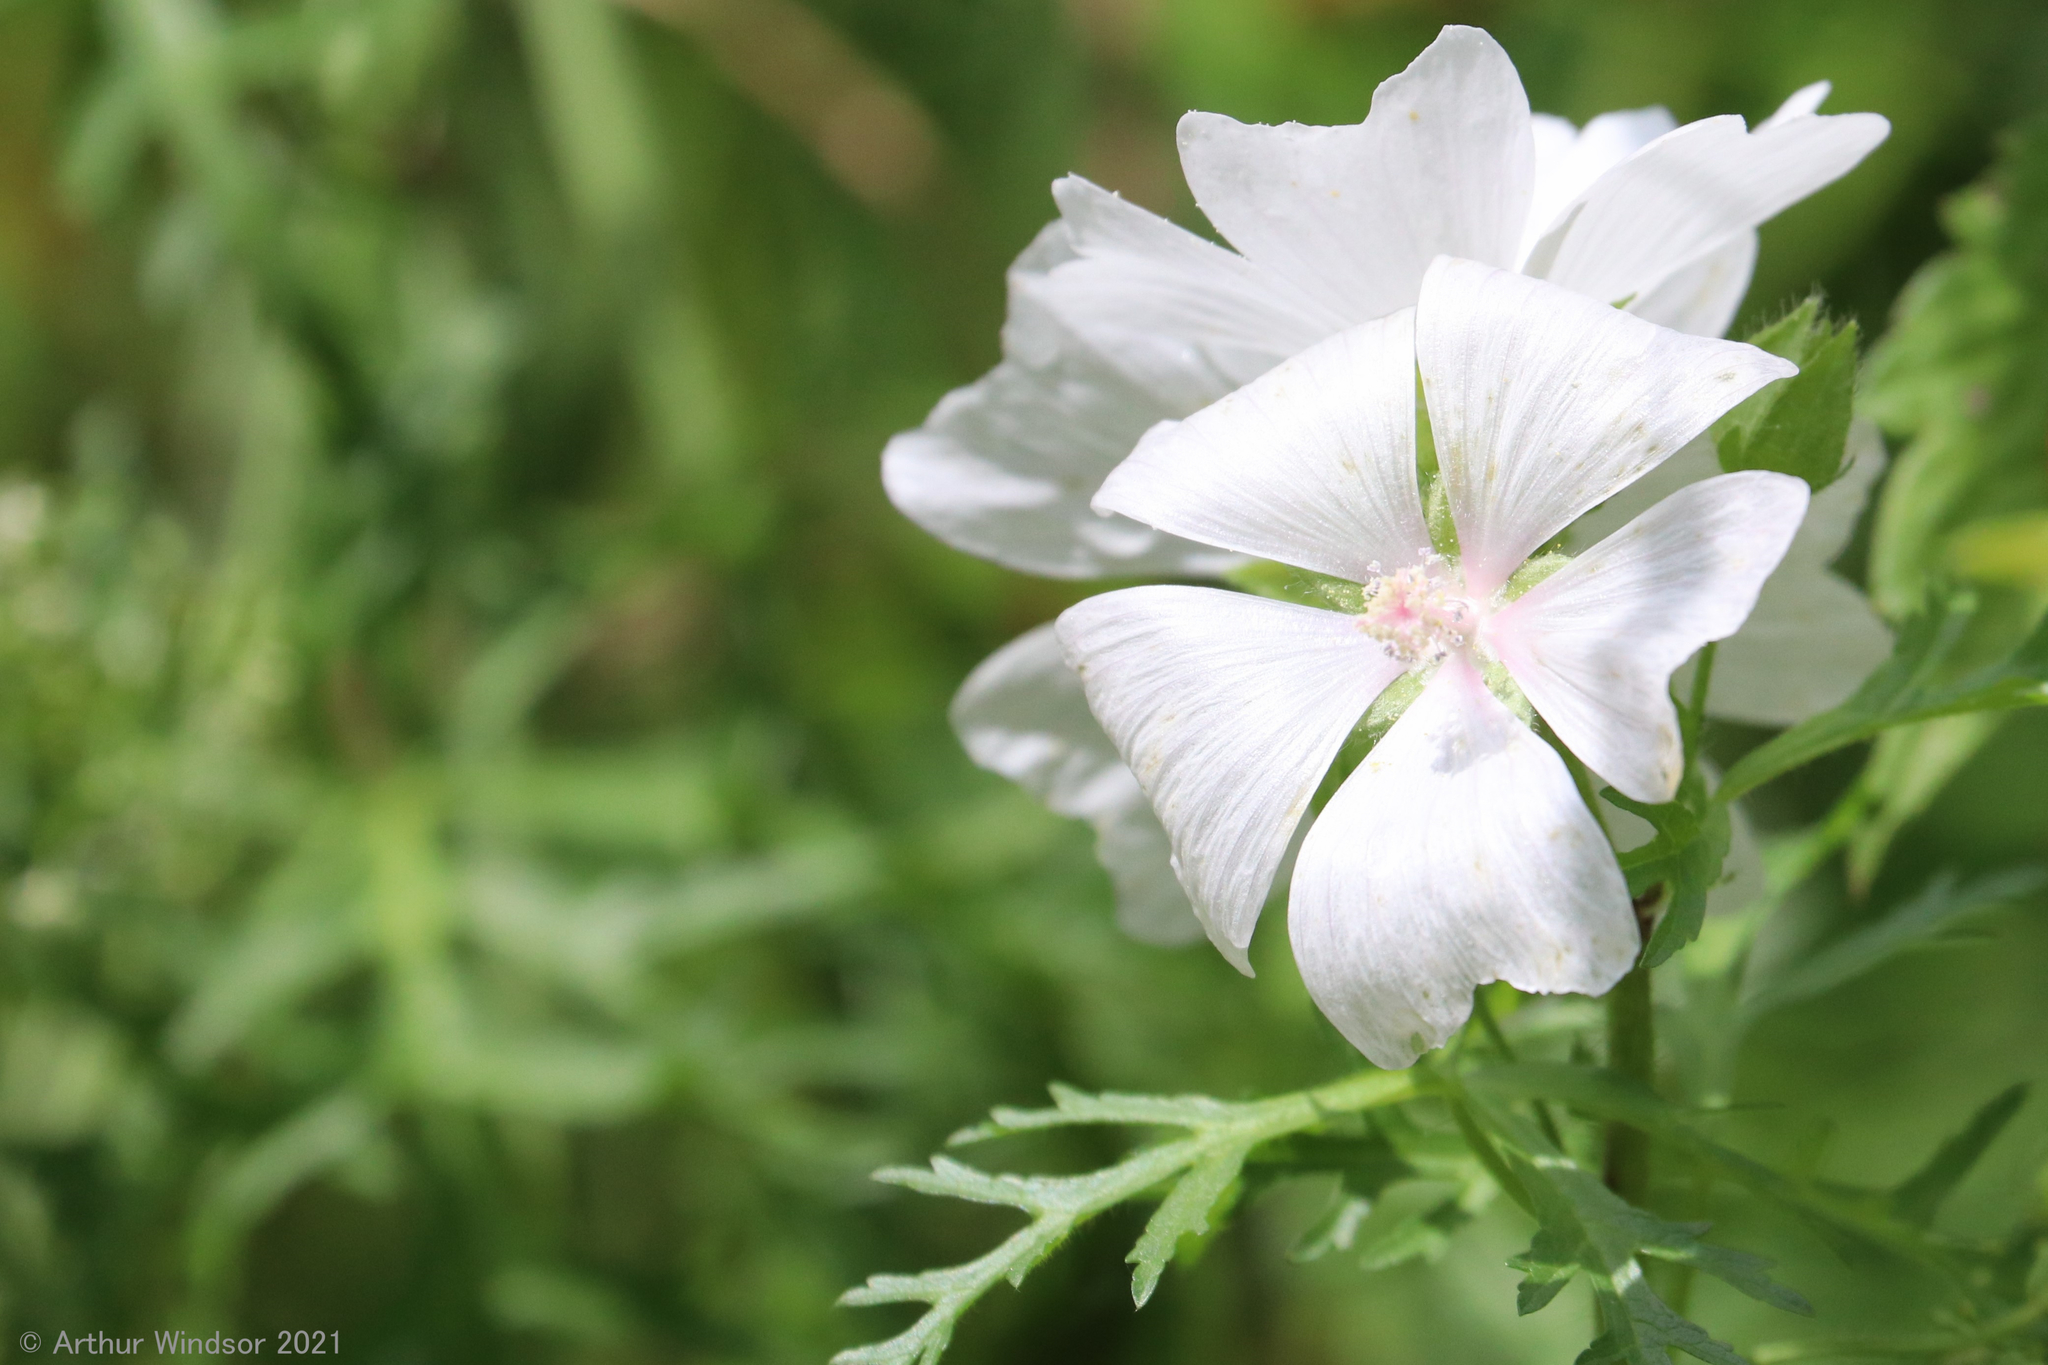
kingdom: Plantae
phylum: Tracheophyta
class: Magnoliopsida
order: Malvales
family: Malvaceae
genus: Malva
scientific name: Malva moschata
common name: Musk mallow
